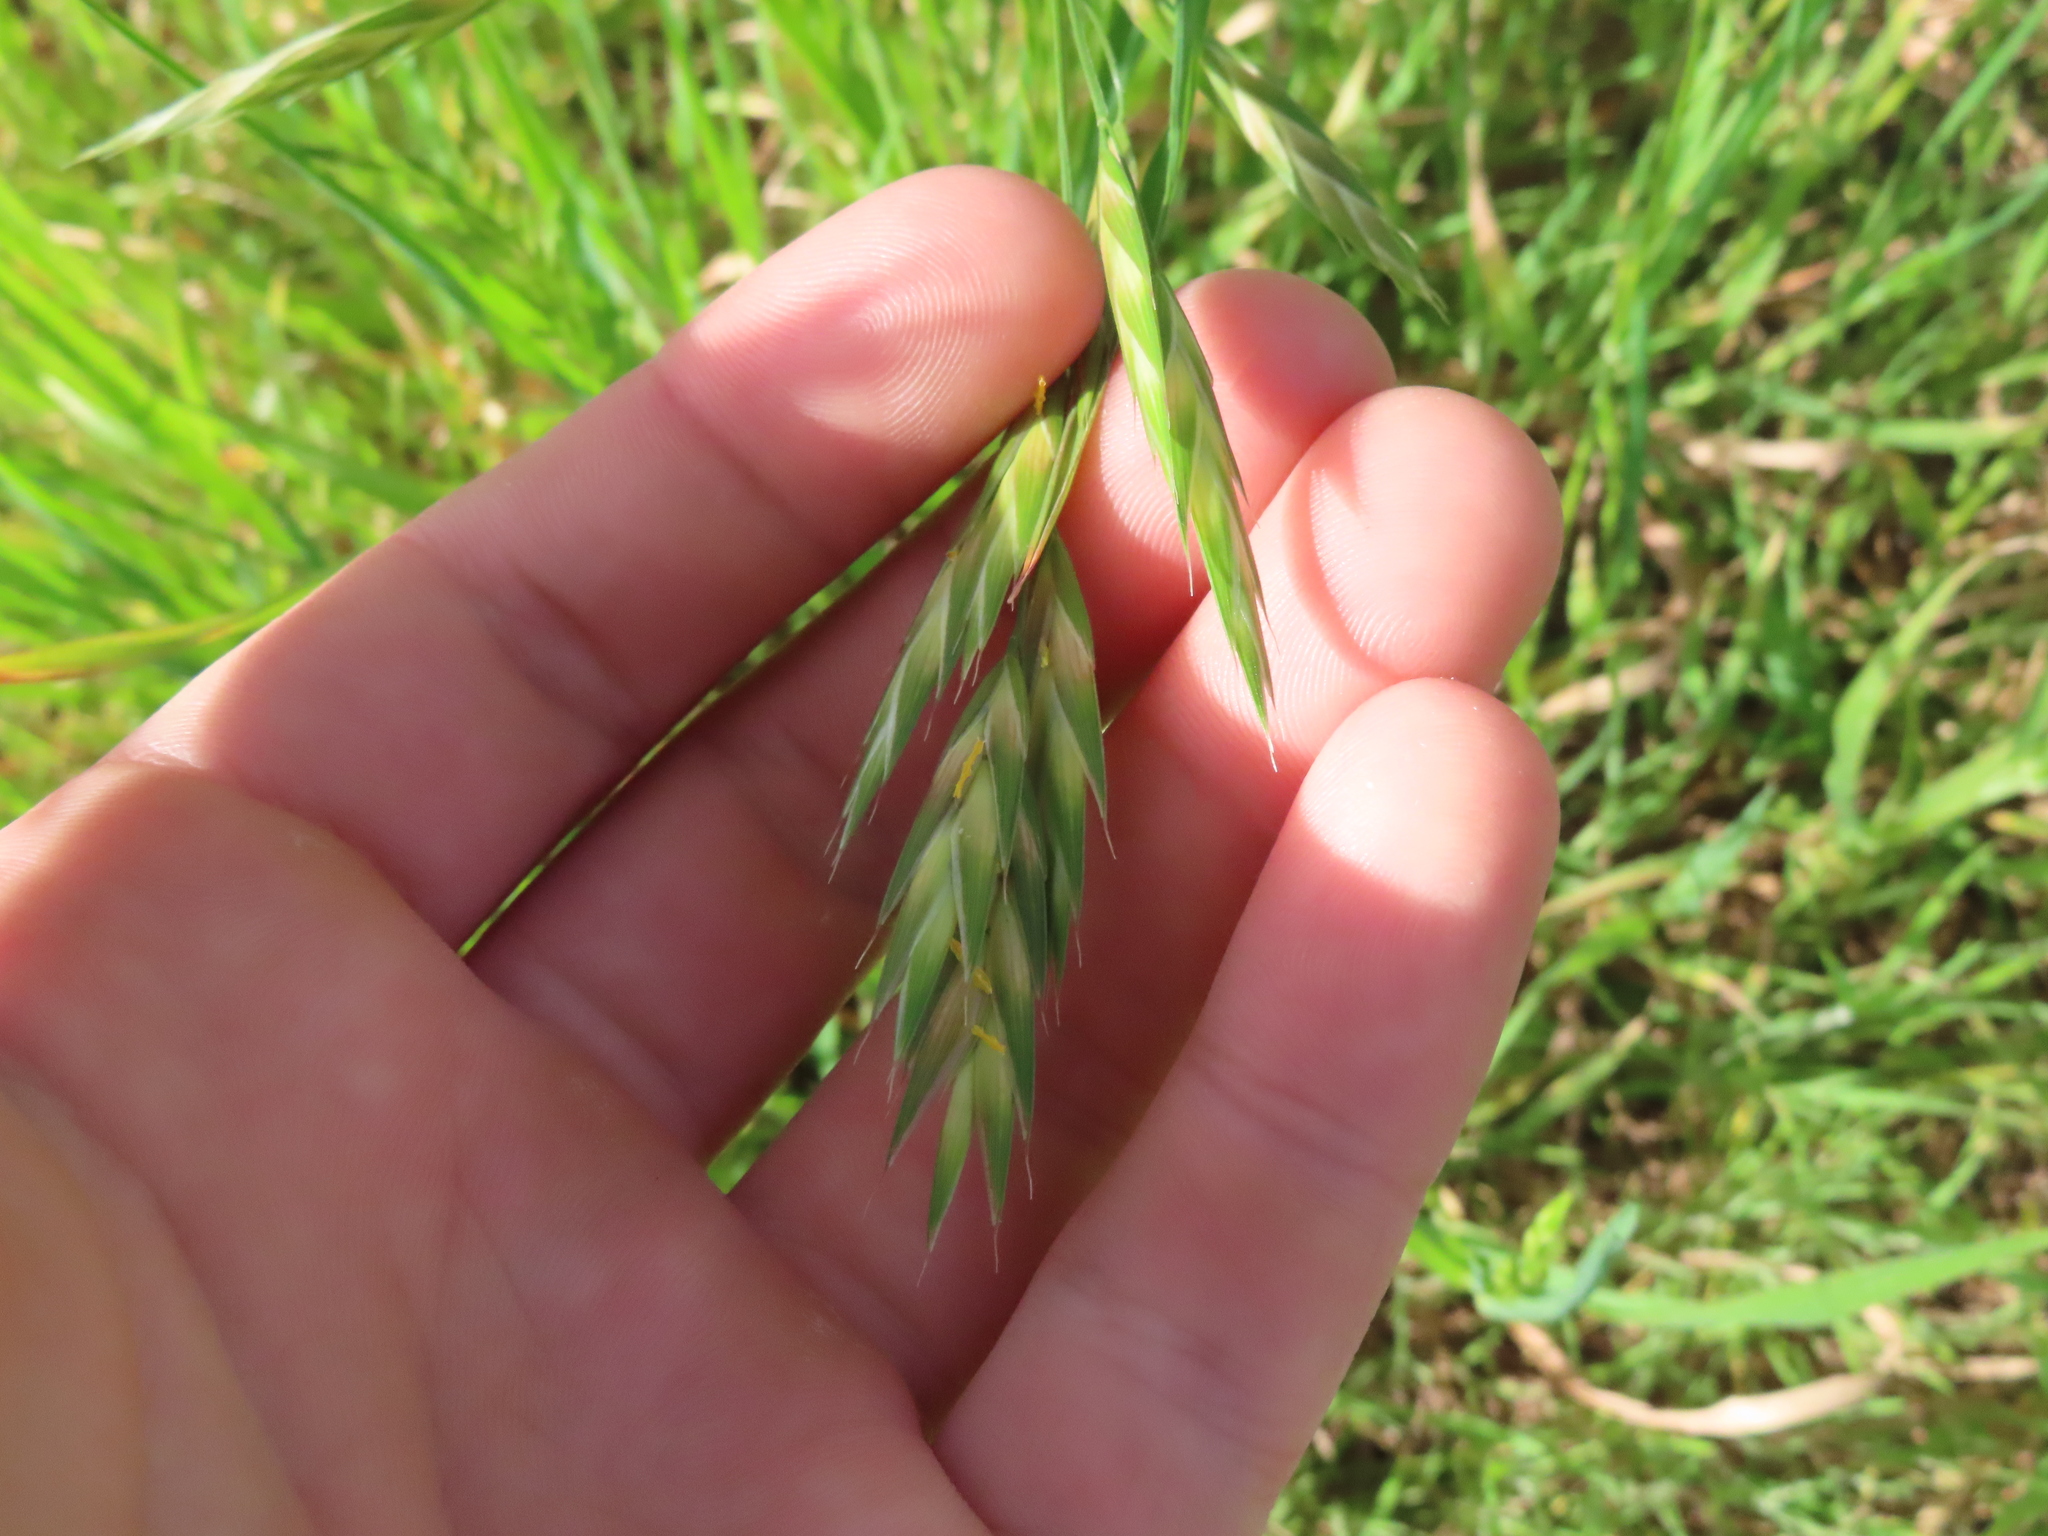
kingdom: Plantae
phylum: Tracheophyta
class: Liliopsida
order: Poales
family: Poaceae
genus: Bromus
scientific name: Bromus catharticus
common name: Rescuegrass
